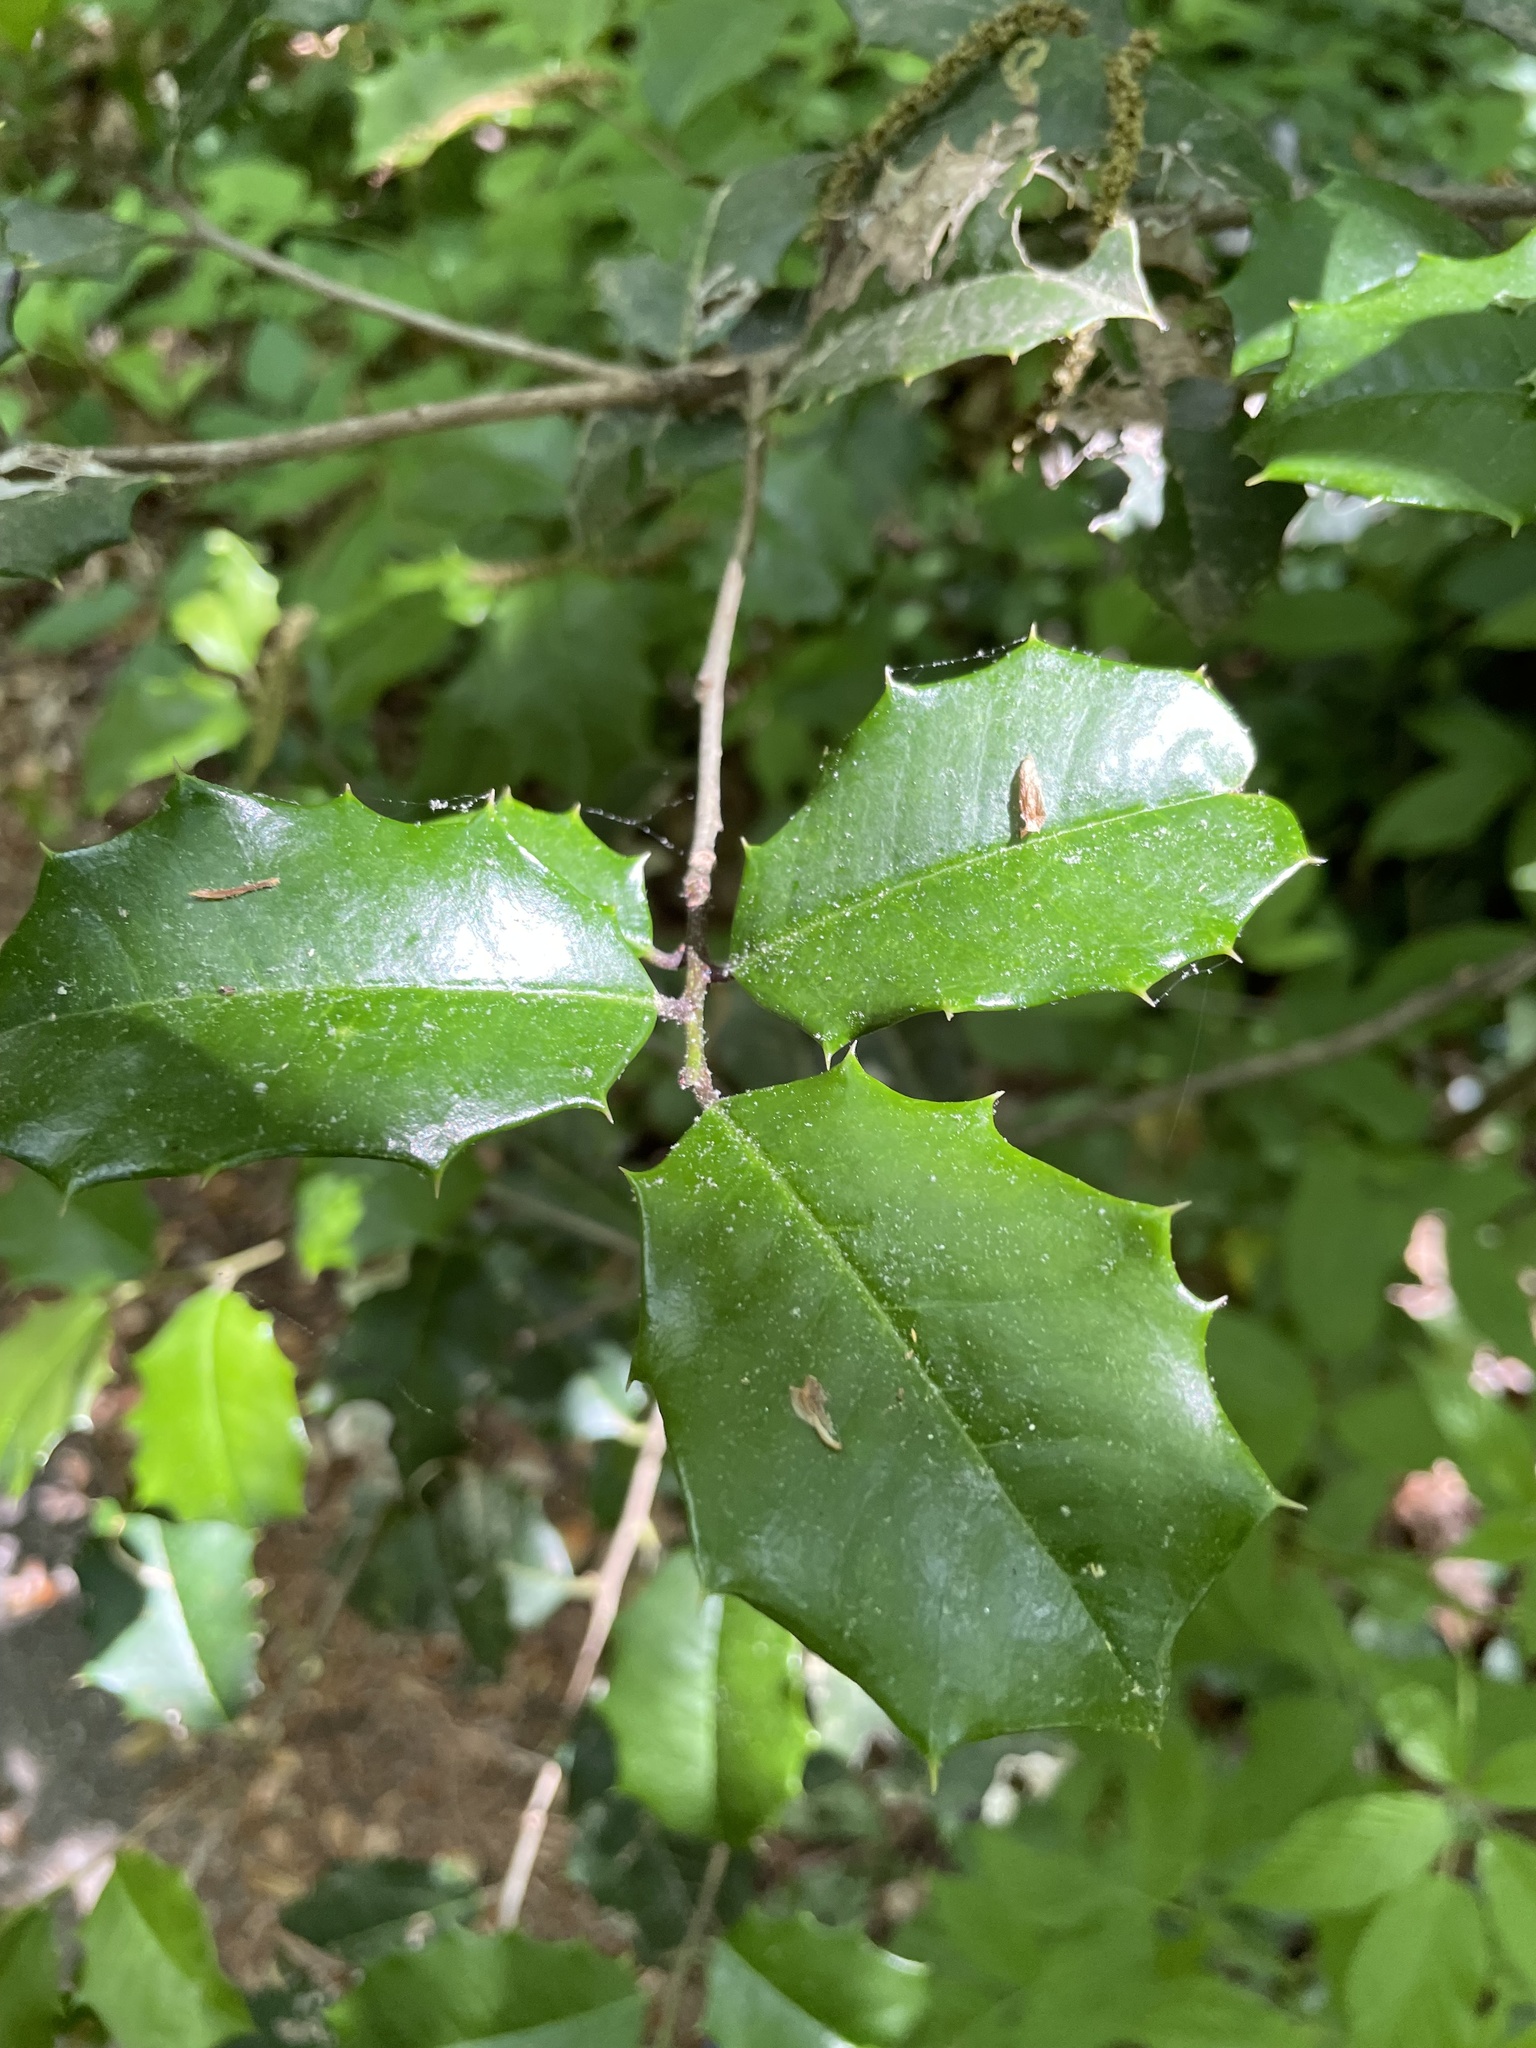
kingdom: Plantae
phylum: Tracheophyta
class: Magnoliopsida
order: Aquifoliales
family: Aquifoliaceae
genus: Ilex
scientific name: Ilex opaca
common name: American holly
